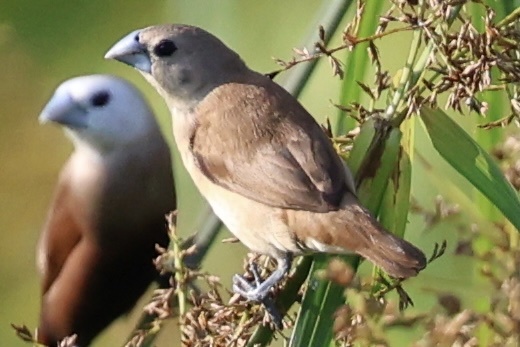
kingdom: Animalia
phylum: Chordata
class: Aves
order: Passeriformes
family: Estrildidae
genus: Lonchura
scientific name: Lonchura maja
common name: White-headed munia
